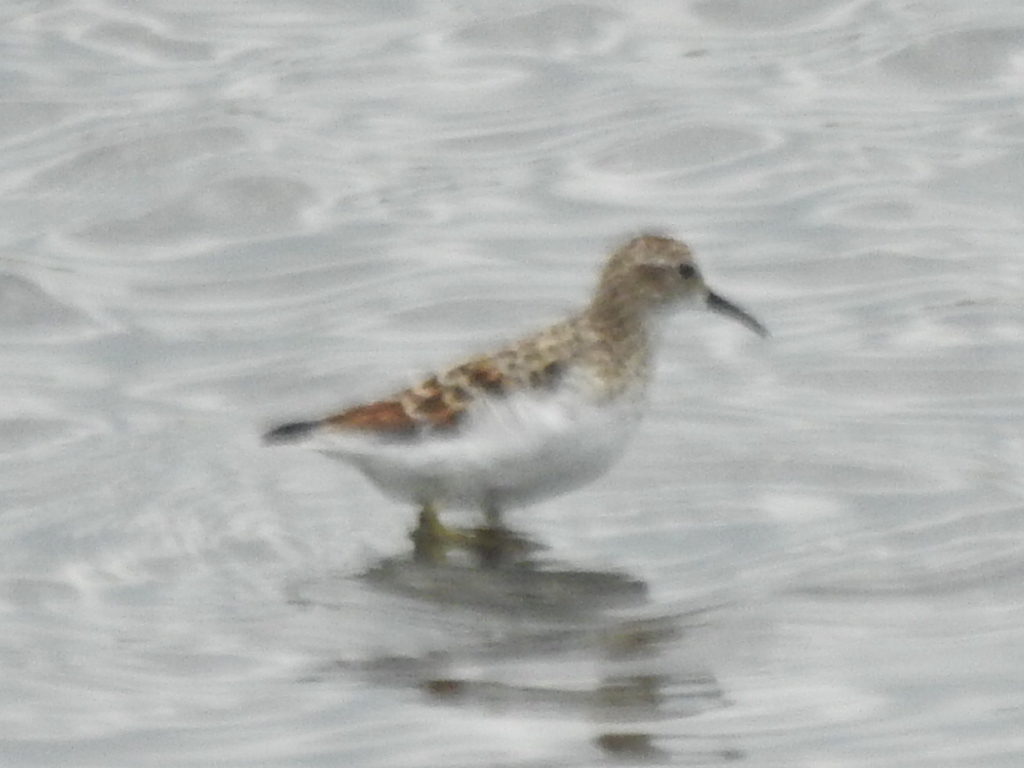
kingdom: Animalia
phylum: Chordata
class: Aves
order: Charadriiformes
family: Scolopacidae
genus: Calidris
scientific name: Calidris minutilla
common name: Least sandpiper
